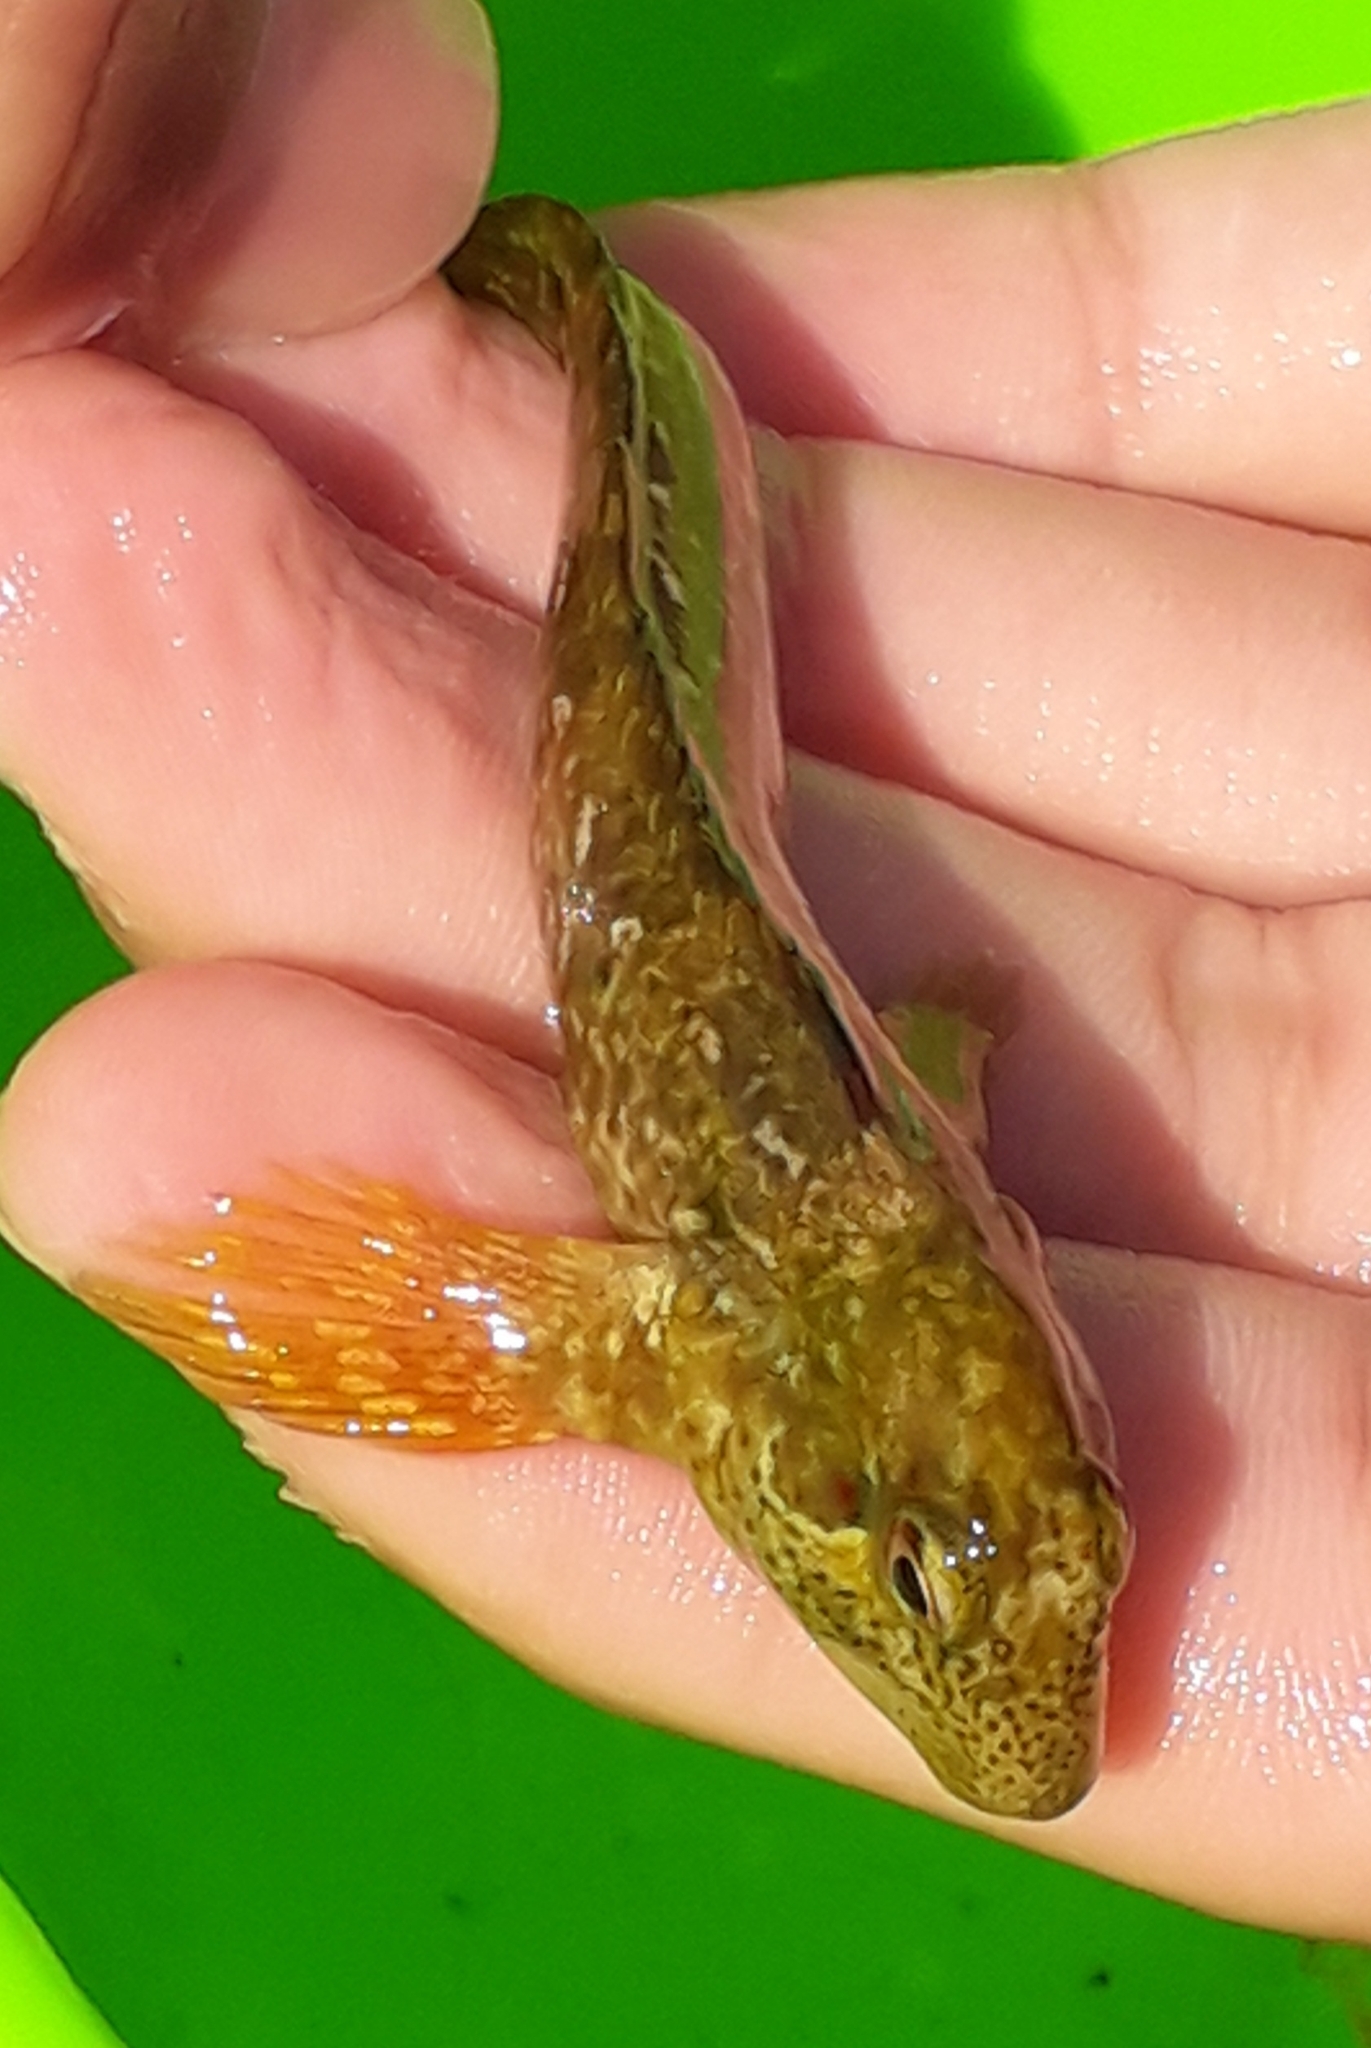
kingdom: Animalia
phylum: Chordata
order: Perciformes
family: Blenniidae
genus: Lipophrys
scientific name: Lipophrys pholis
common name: Shanny
